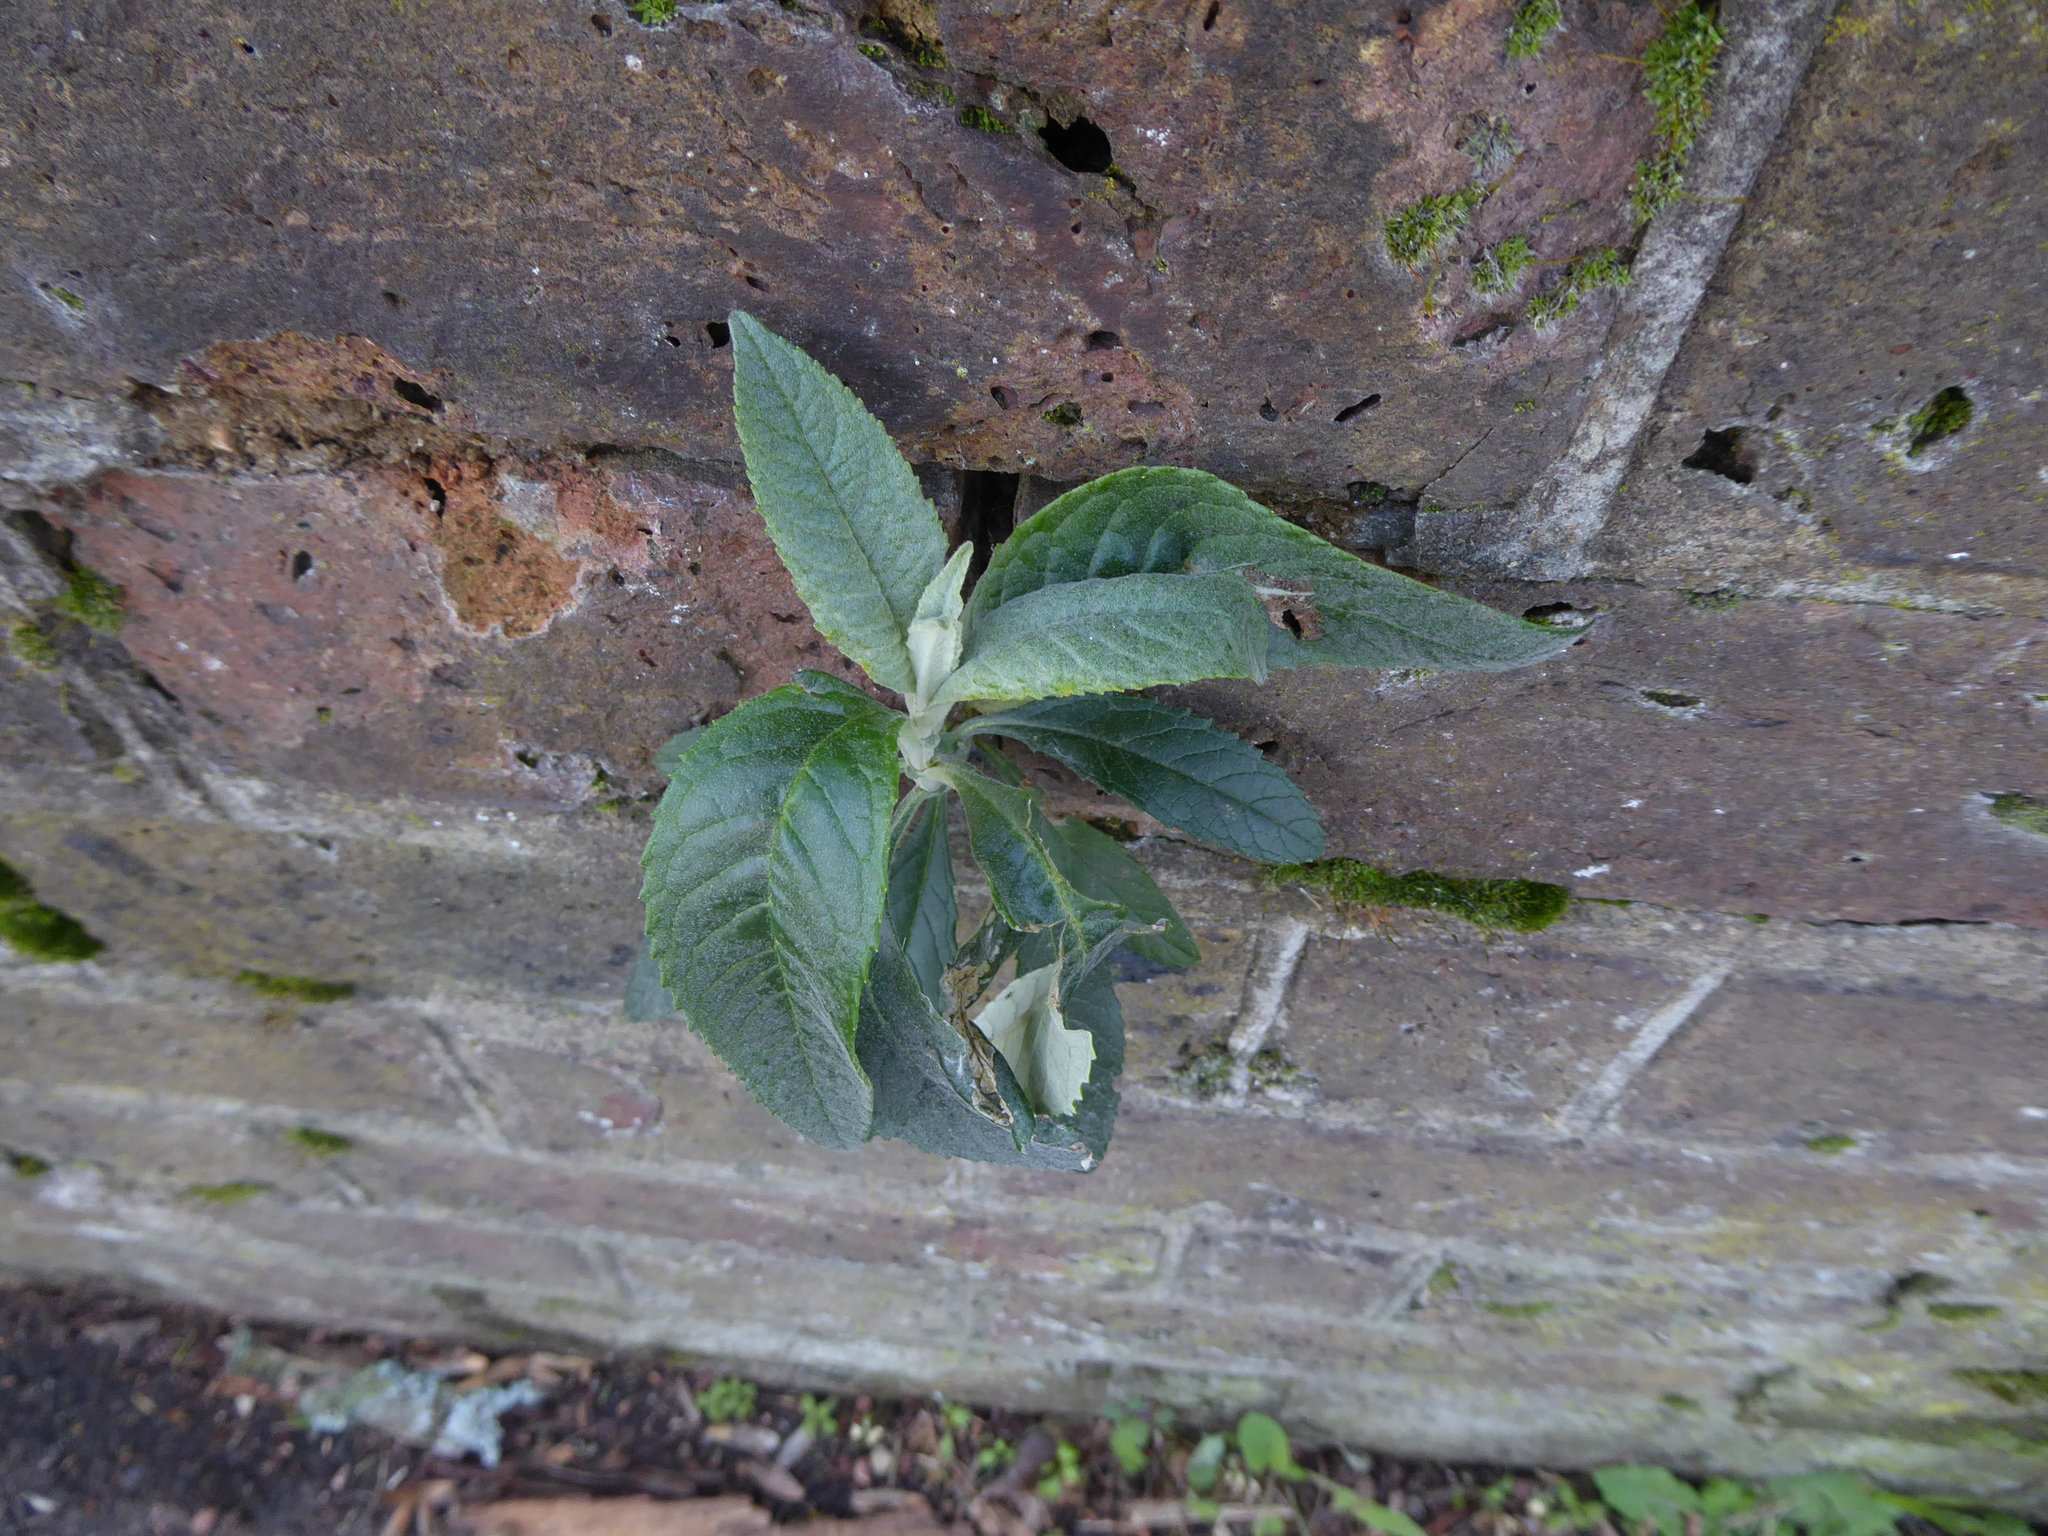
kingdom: Plantae
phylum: Tracheophyta
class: Magnoliopsida
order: Lamiales
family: Scrophulariaceae
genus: Buddleja
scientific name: Buddleja davidii
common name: Butterfly-bush
